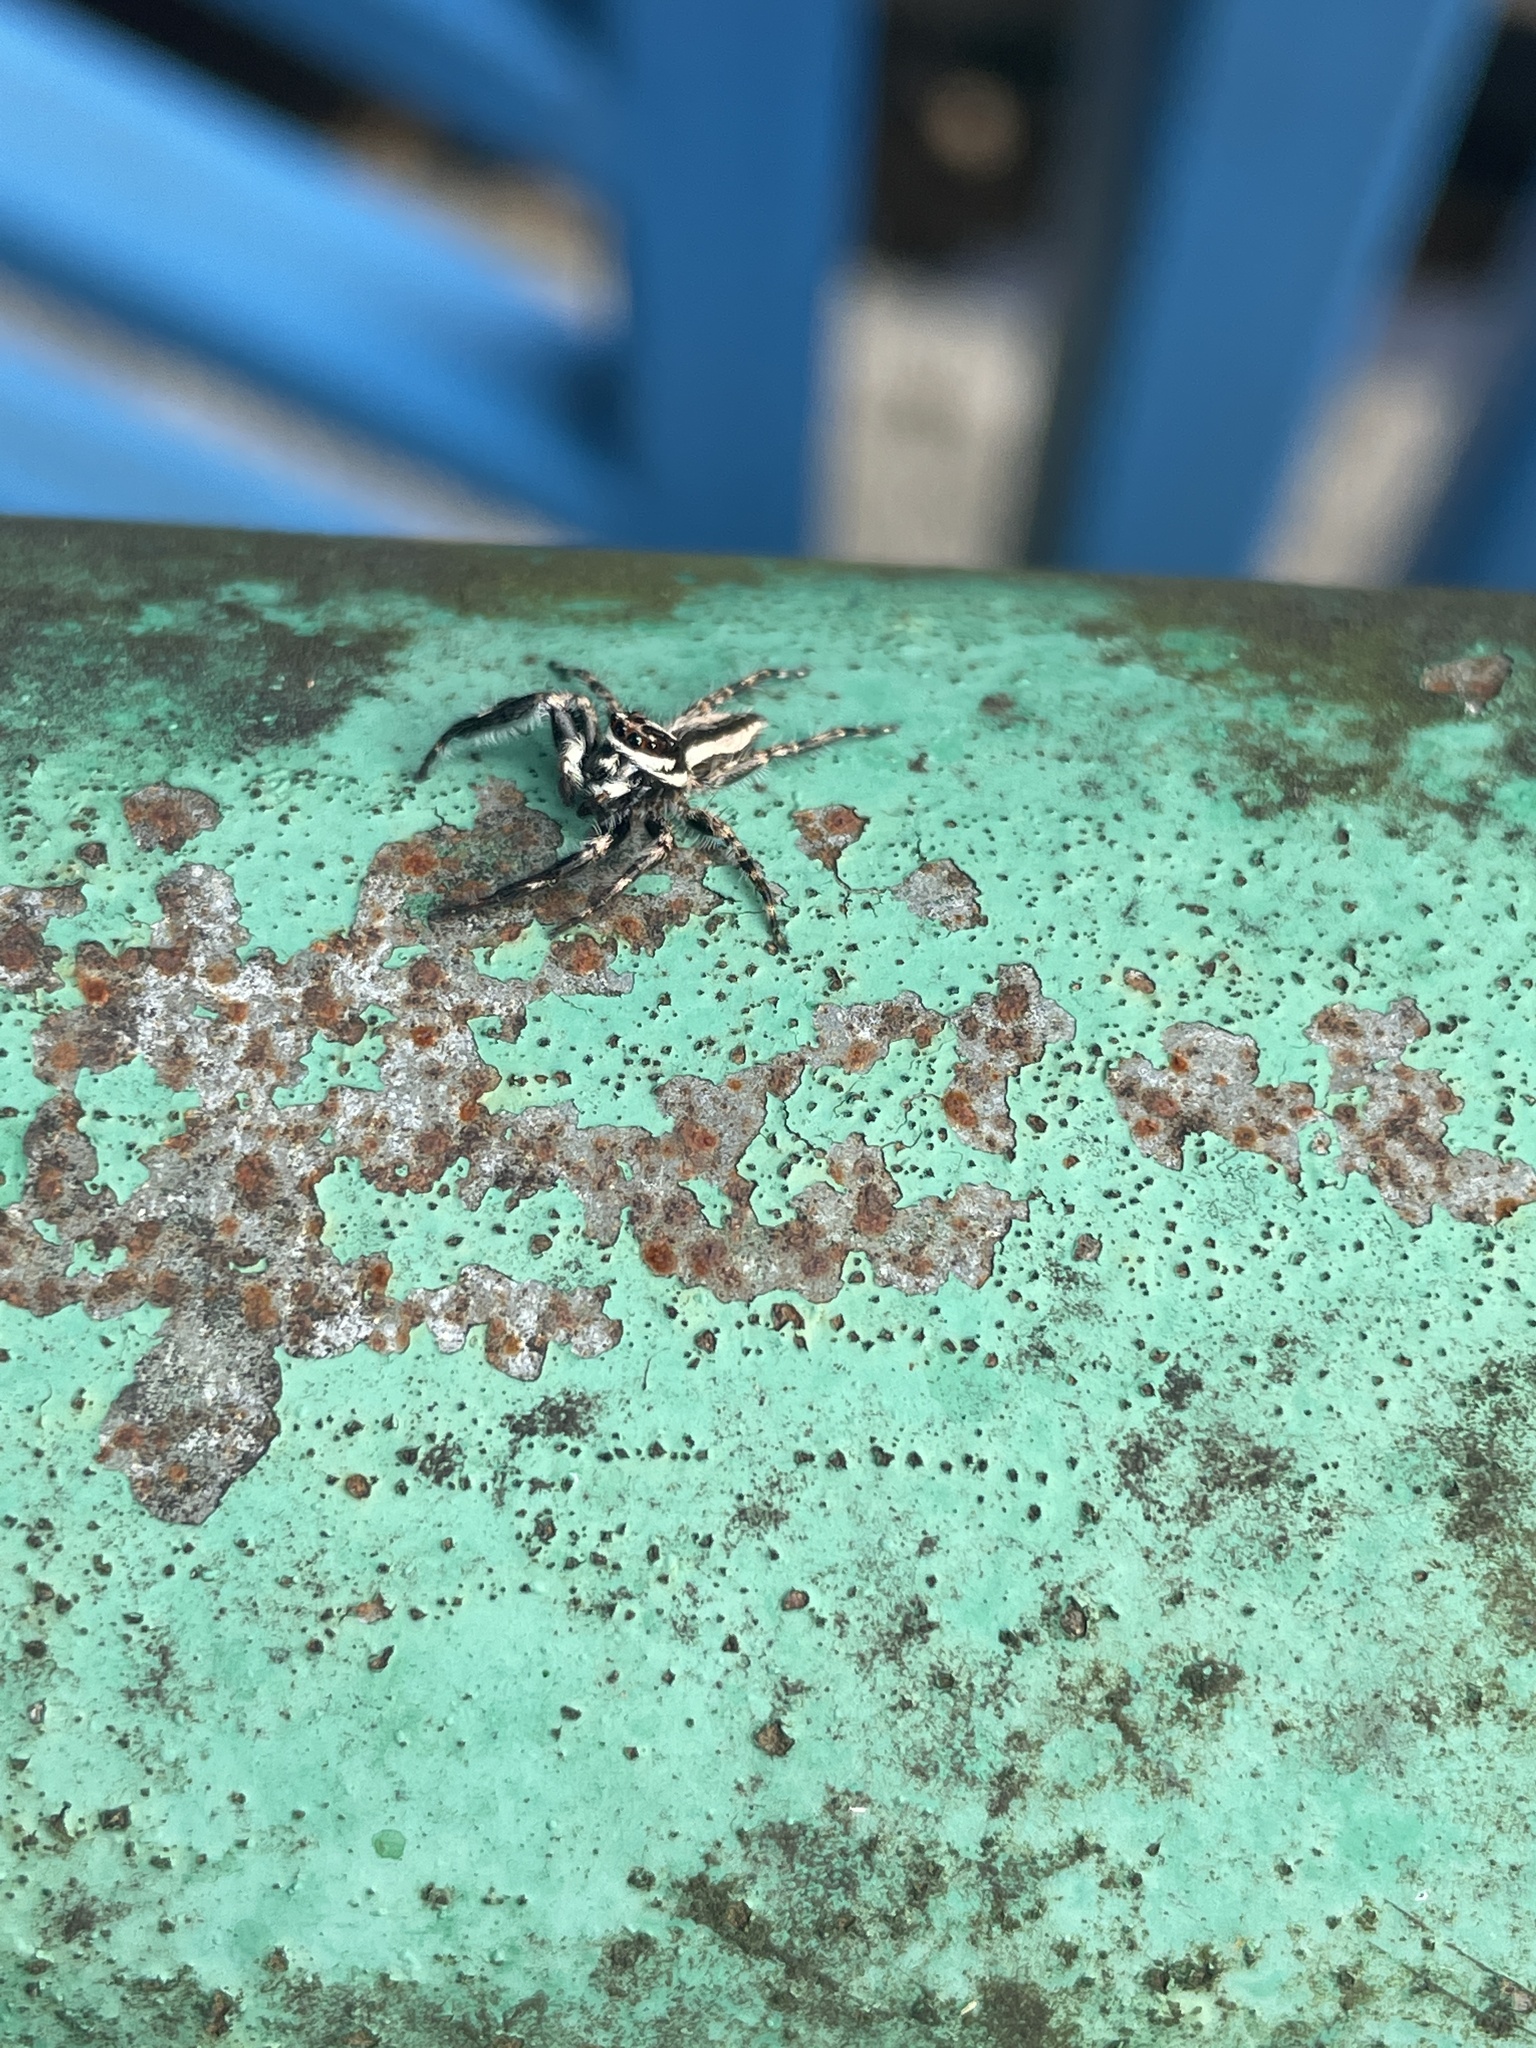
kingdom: Animalia
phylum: Arthropoda
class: Arachnida
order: Araneae
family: Salticidae
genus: Menemerus
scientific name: Menemerus bivittatus
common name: Gray wall jumper
